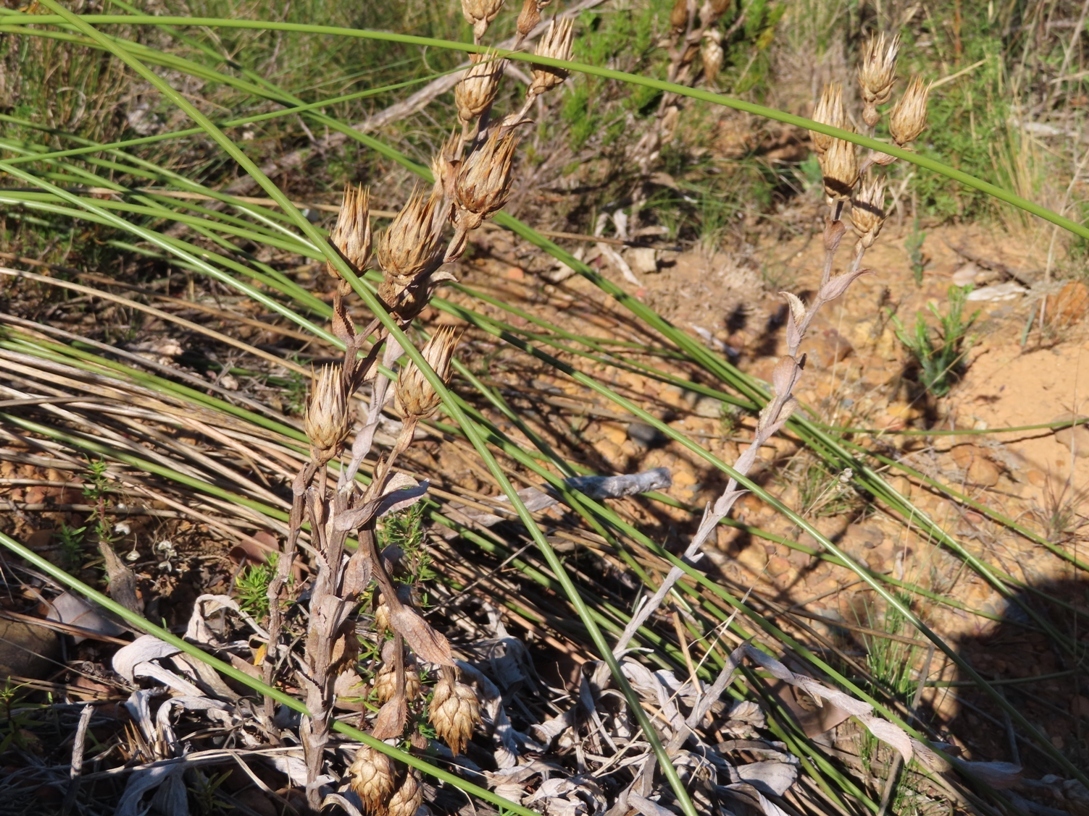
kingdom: Plantae
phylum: Tracheophyta
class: Magnoliopsida
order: Asterales
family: Asteraceae
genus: Berkheya
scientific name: Berkheya armata
